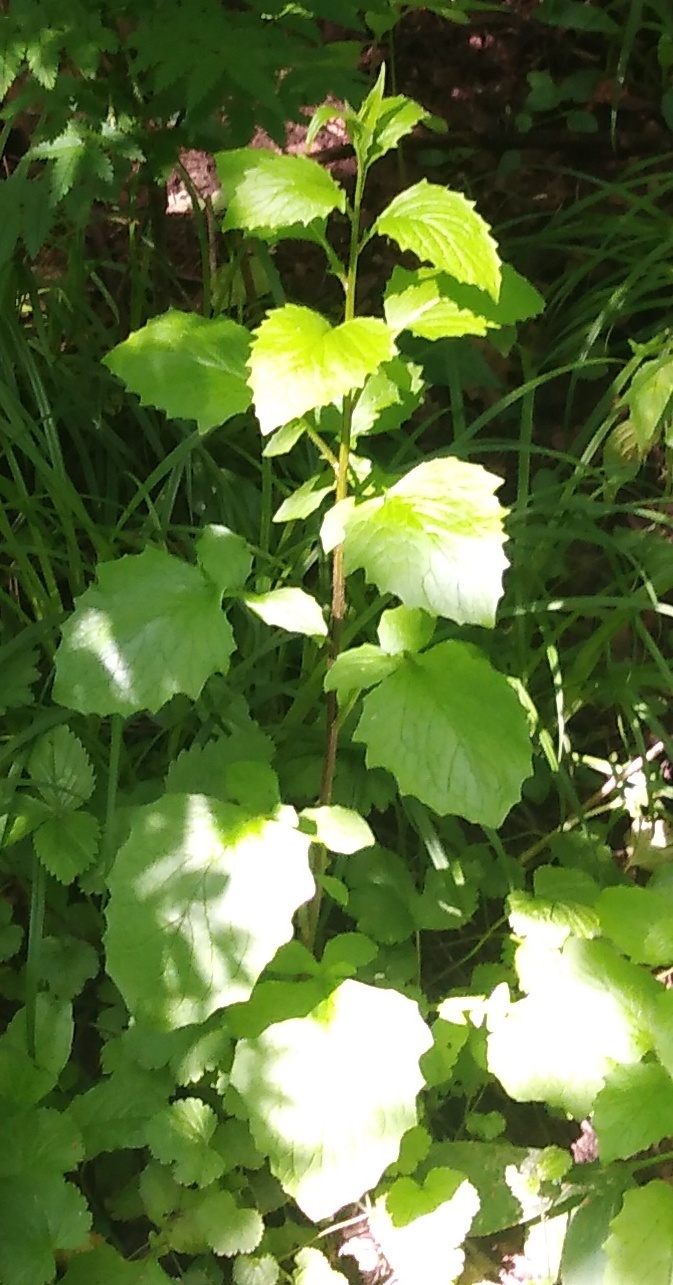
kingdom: Plantae
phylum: Tracheophyta
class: Magnoliopsida
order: Asterales
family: Asteraceae
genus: Lapsana
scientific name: Lapsana communis
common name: Nipplewort
